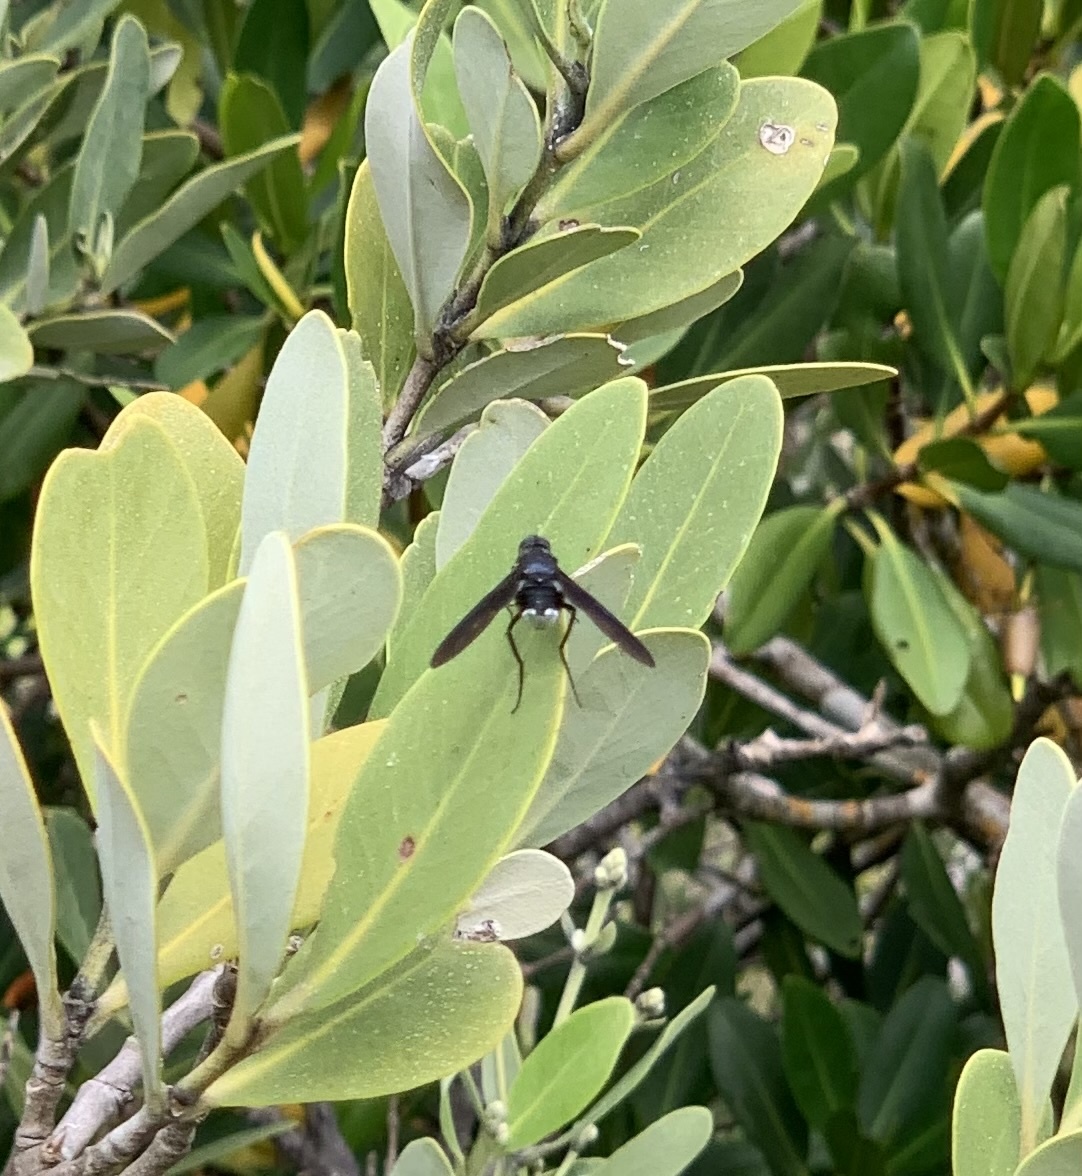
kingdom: Animalia
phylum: Arthropoda
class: Insecta
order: Diptera
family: Bombyliidae
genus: Brachyanax
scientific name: Brachyanax aterrimus
